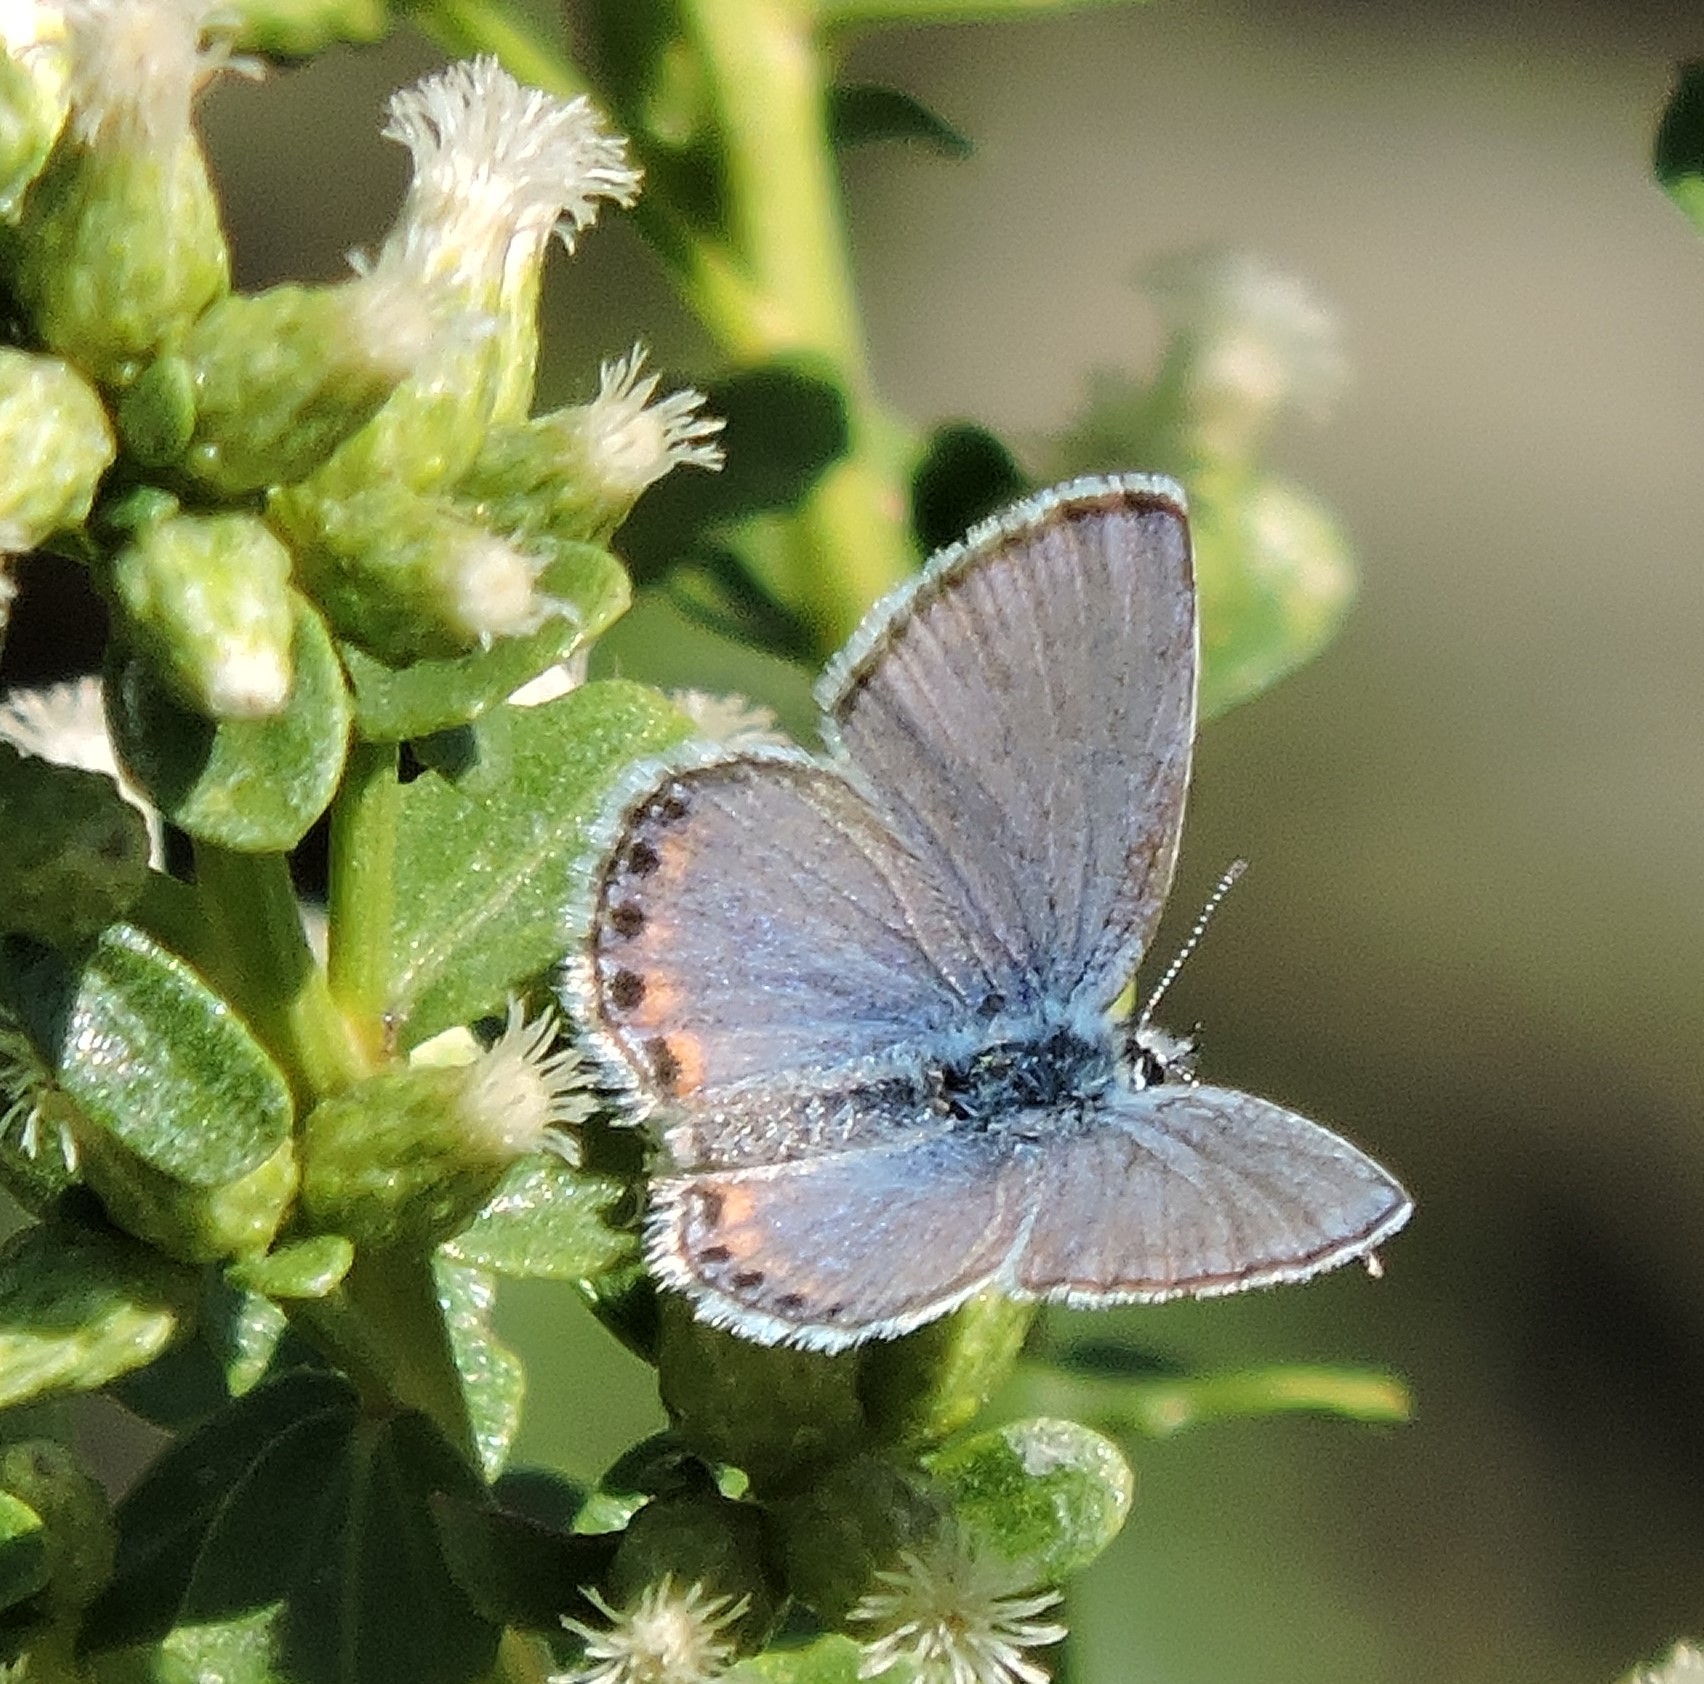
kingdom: Animalia
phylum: Arthropoda
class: Insecta
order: Lepidoptera
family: Lycaenidae
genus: Icaricia
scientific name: Icaricia acmon
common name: Acmon blue
